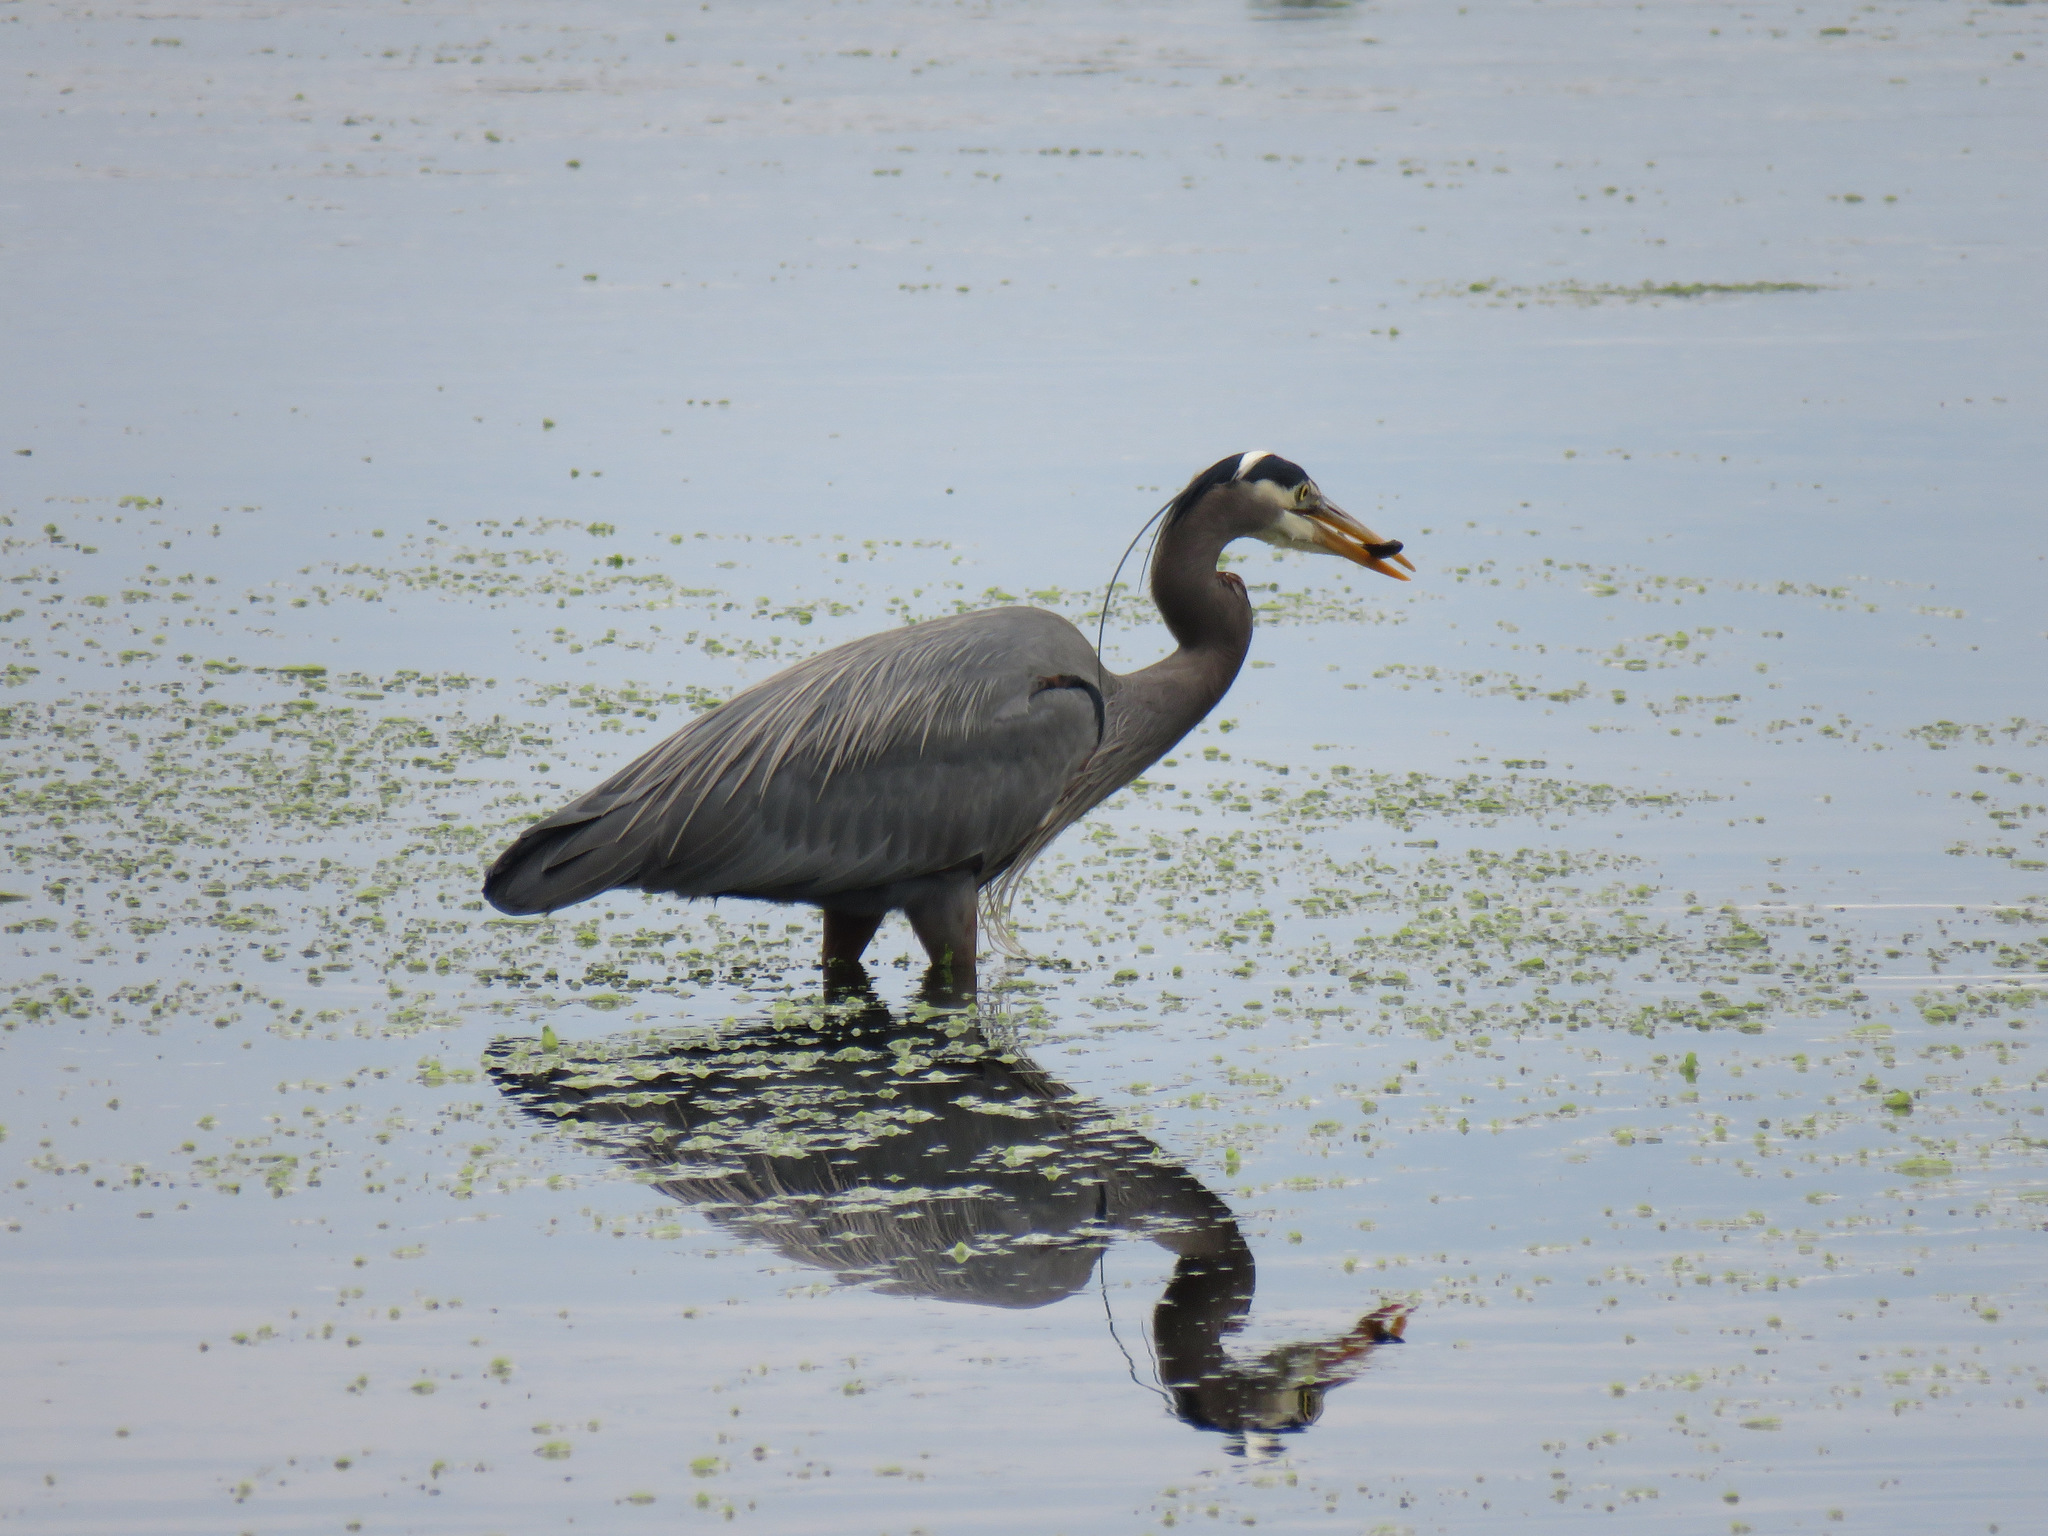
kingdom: Animalia
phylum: Chordata
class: Aves
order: Pelecaniformes
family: Ardeidae
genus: Ardea
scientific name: Ardea herodias
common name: Great blue heron
